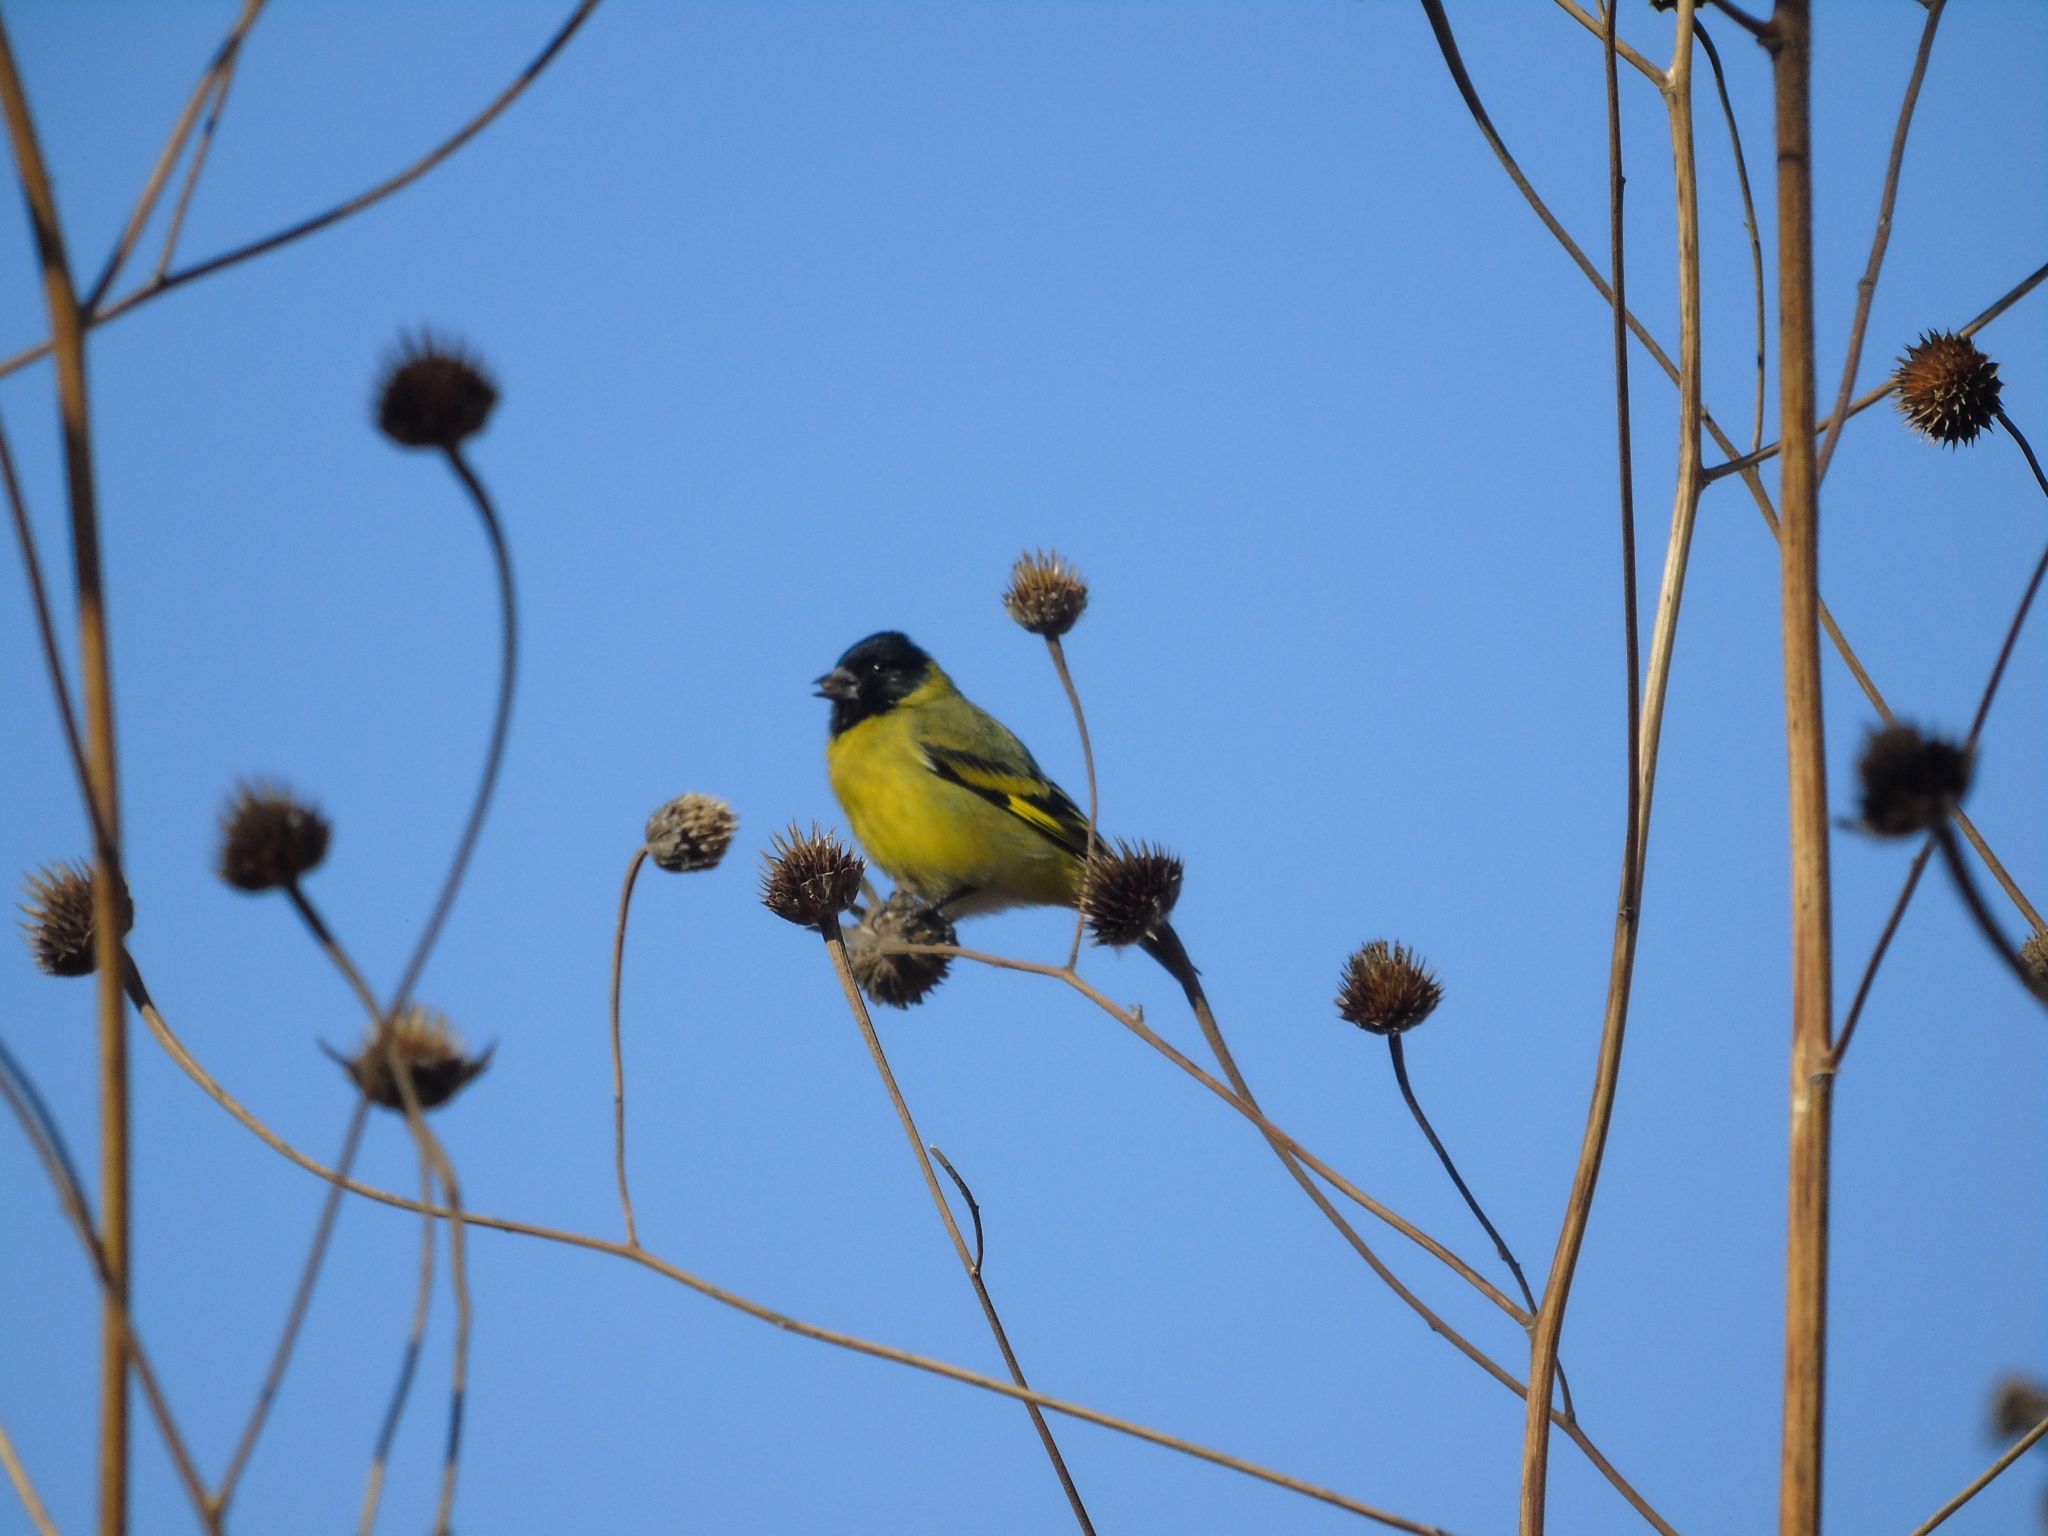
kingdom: Animalia
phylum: Chordata
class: Aves
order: Passeriformes
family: Fringillidae
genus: Spinus
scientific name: Spinus magellanicus
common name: Hooded siskin
